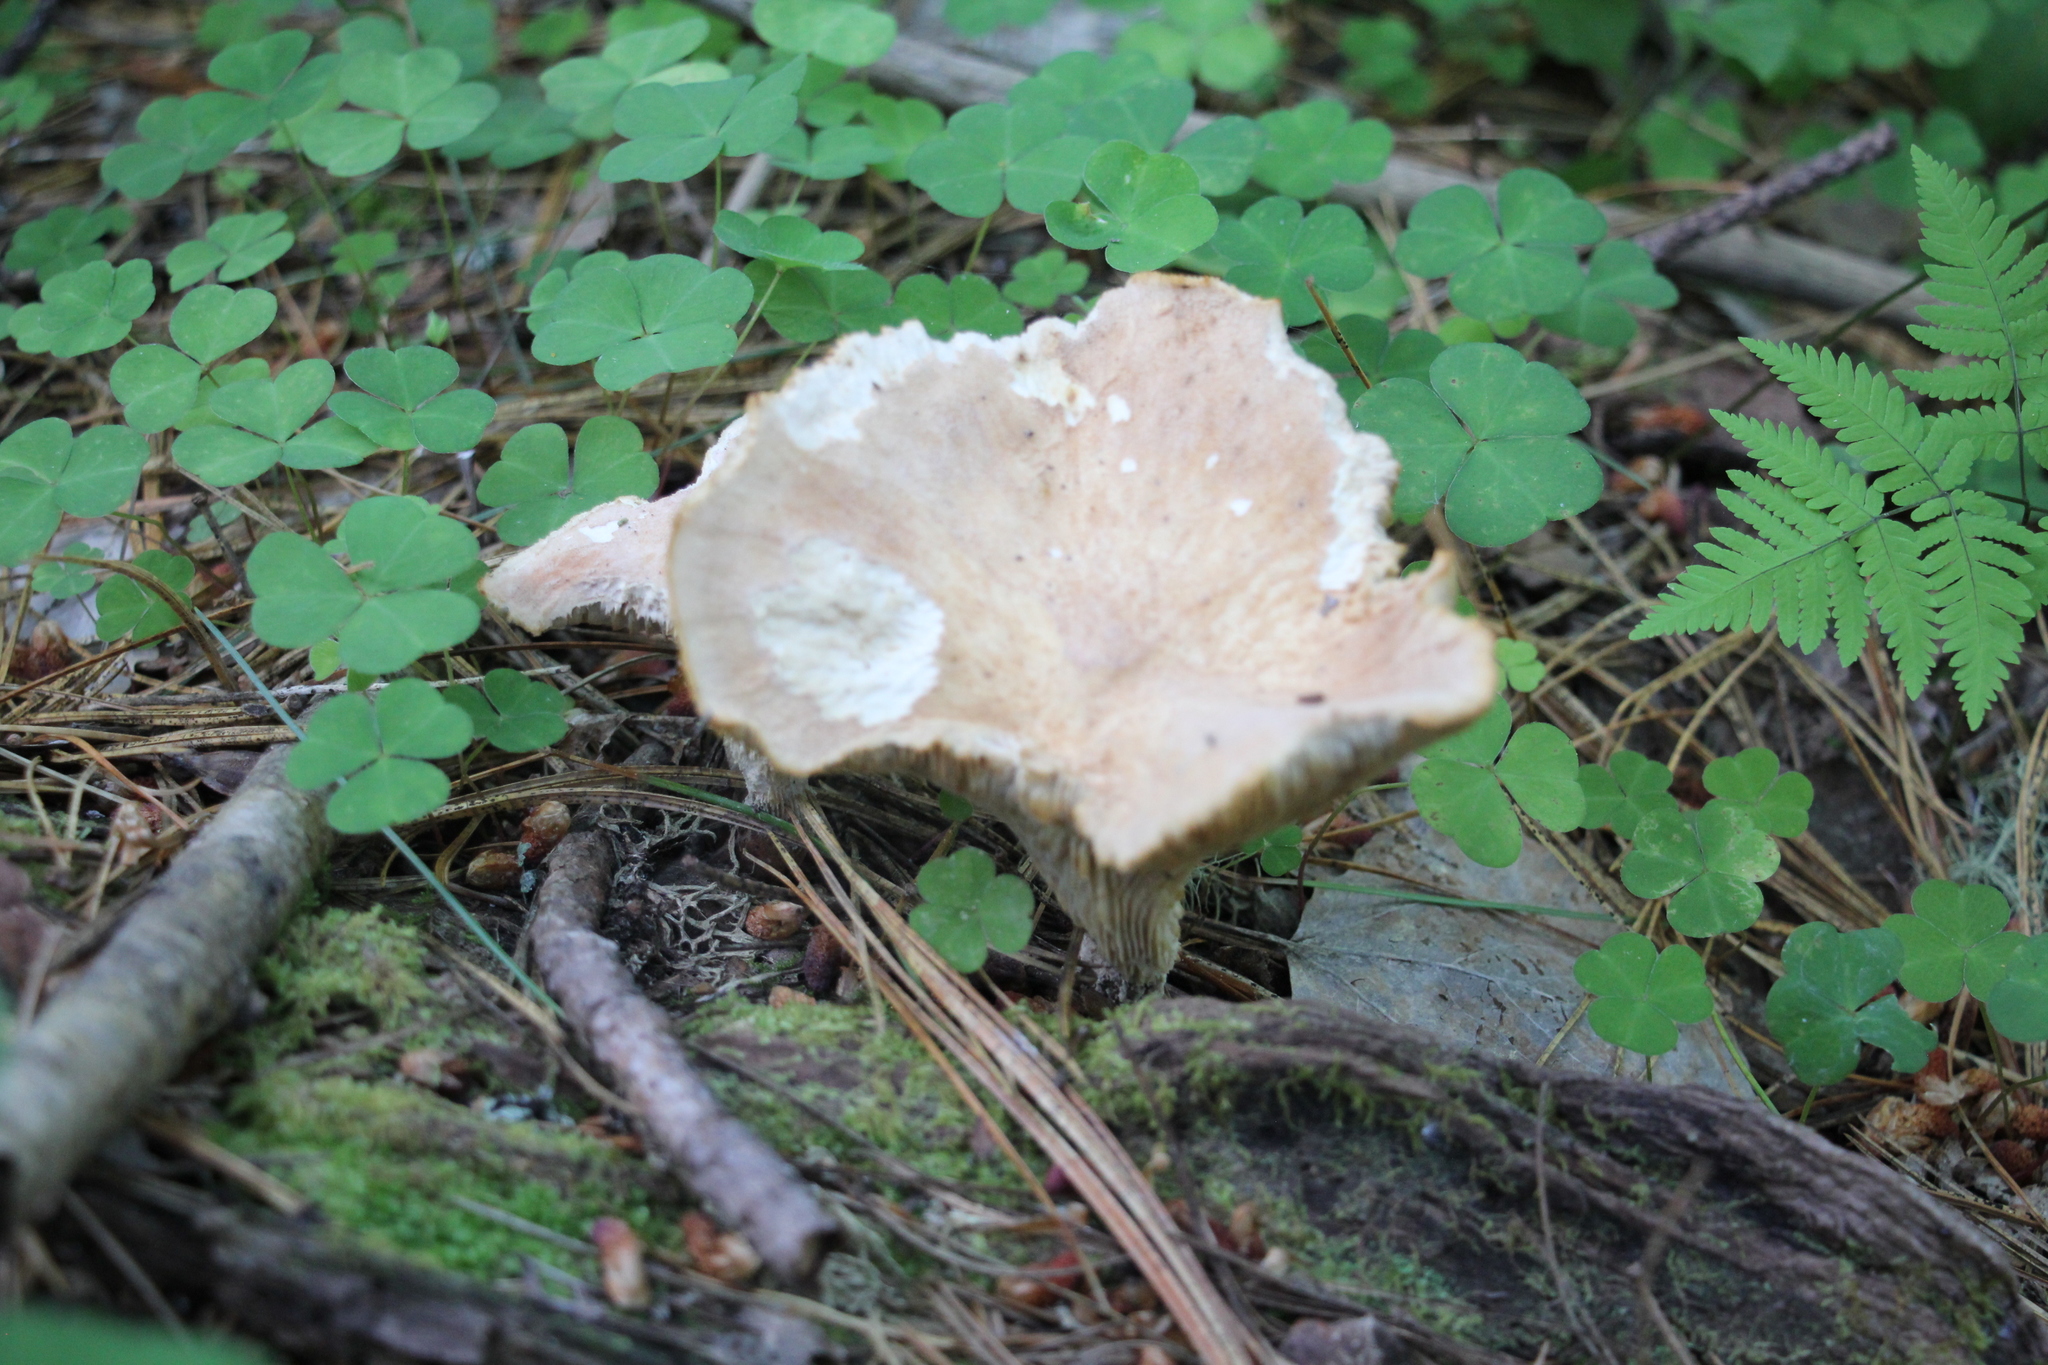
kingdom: Fungi
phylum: Basidiomycota
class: Agaricomycetes
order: Gloeophyllales
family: Gloeophyllaceae
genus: Neolentinus
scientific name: Neolentinus cyathiformis
